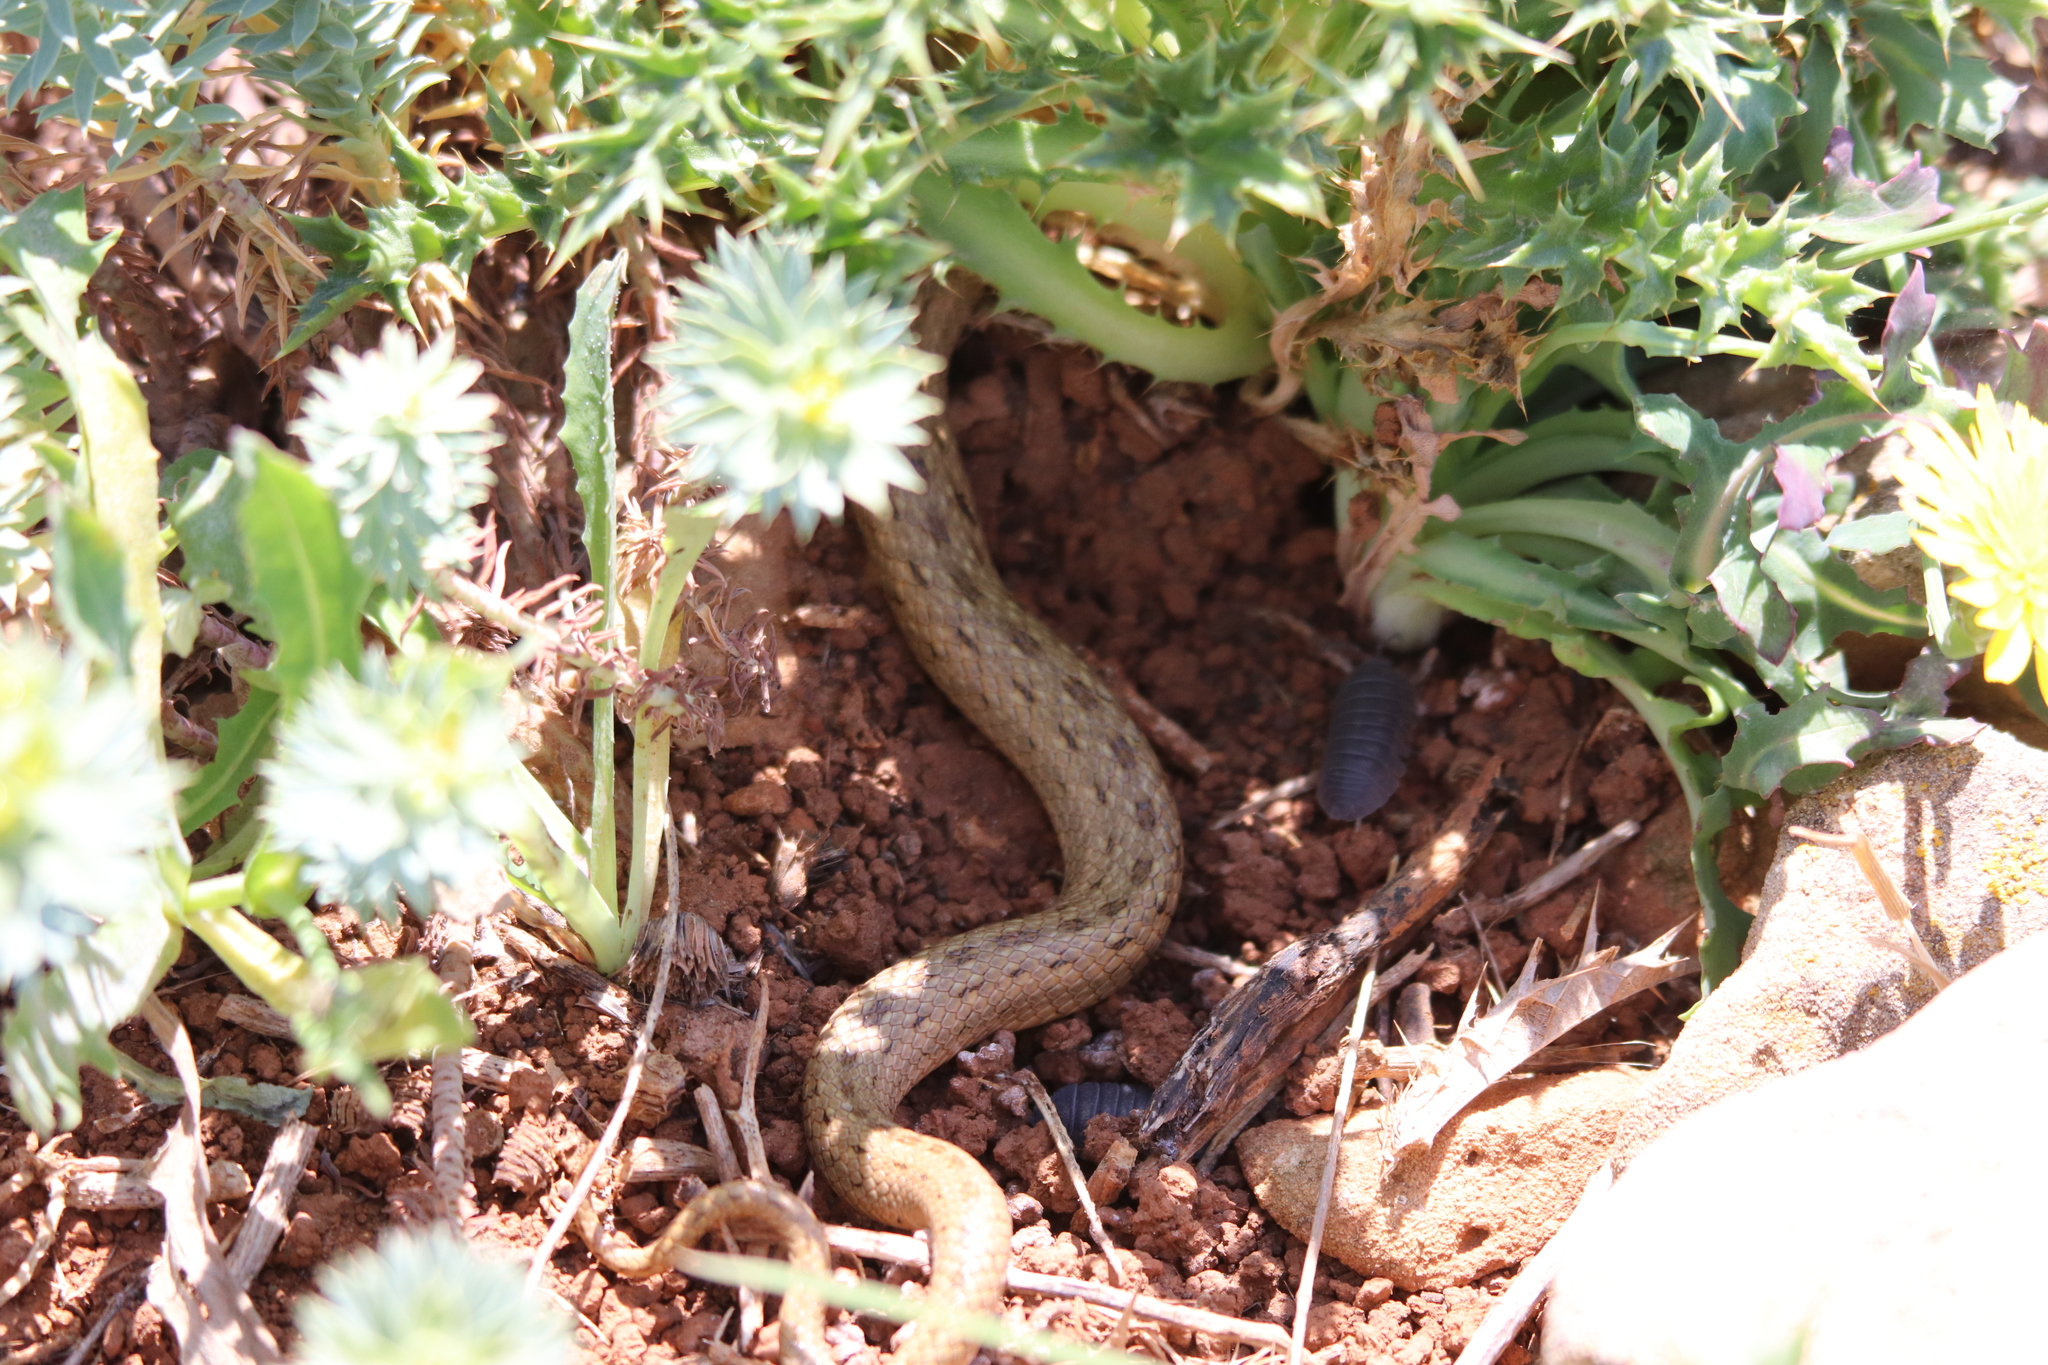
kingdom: Animalia
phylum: Chordata
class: Squamata
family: Colubridae
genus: Macroprotodon
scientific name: Macroprotodon mauritanicus
